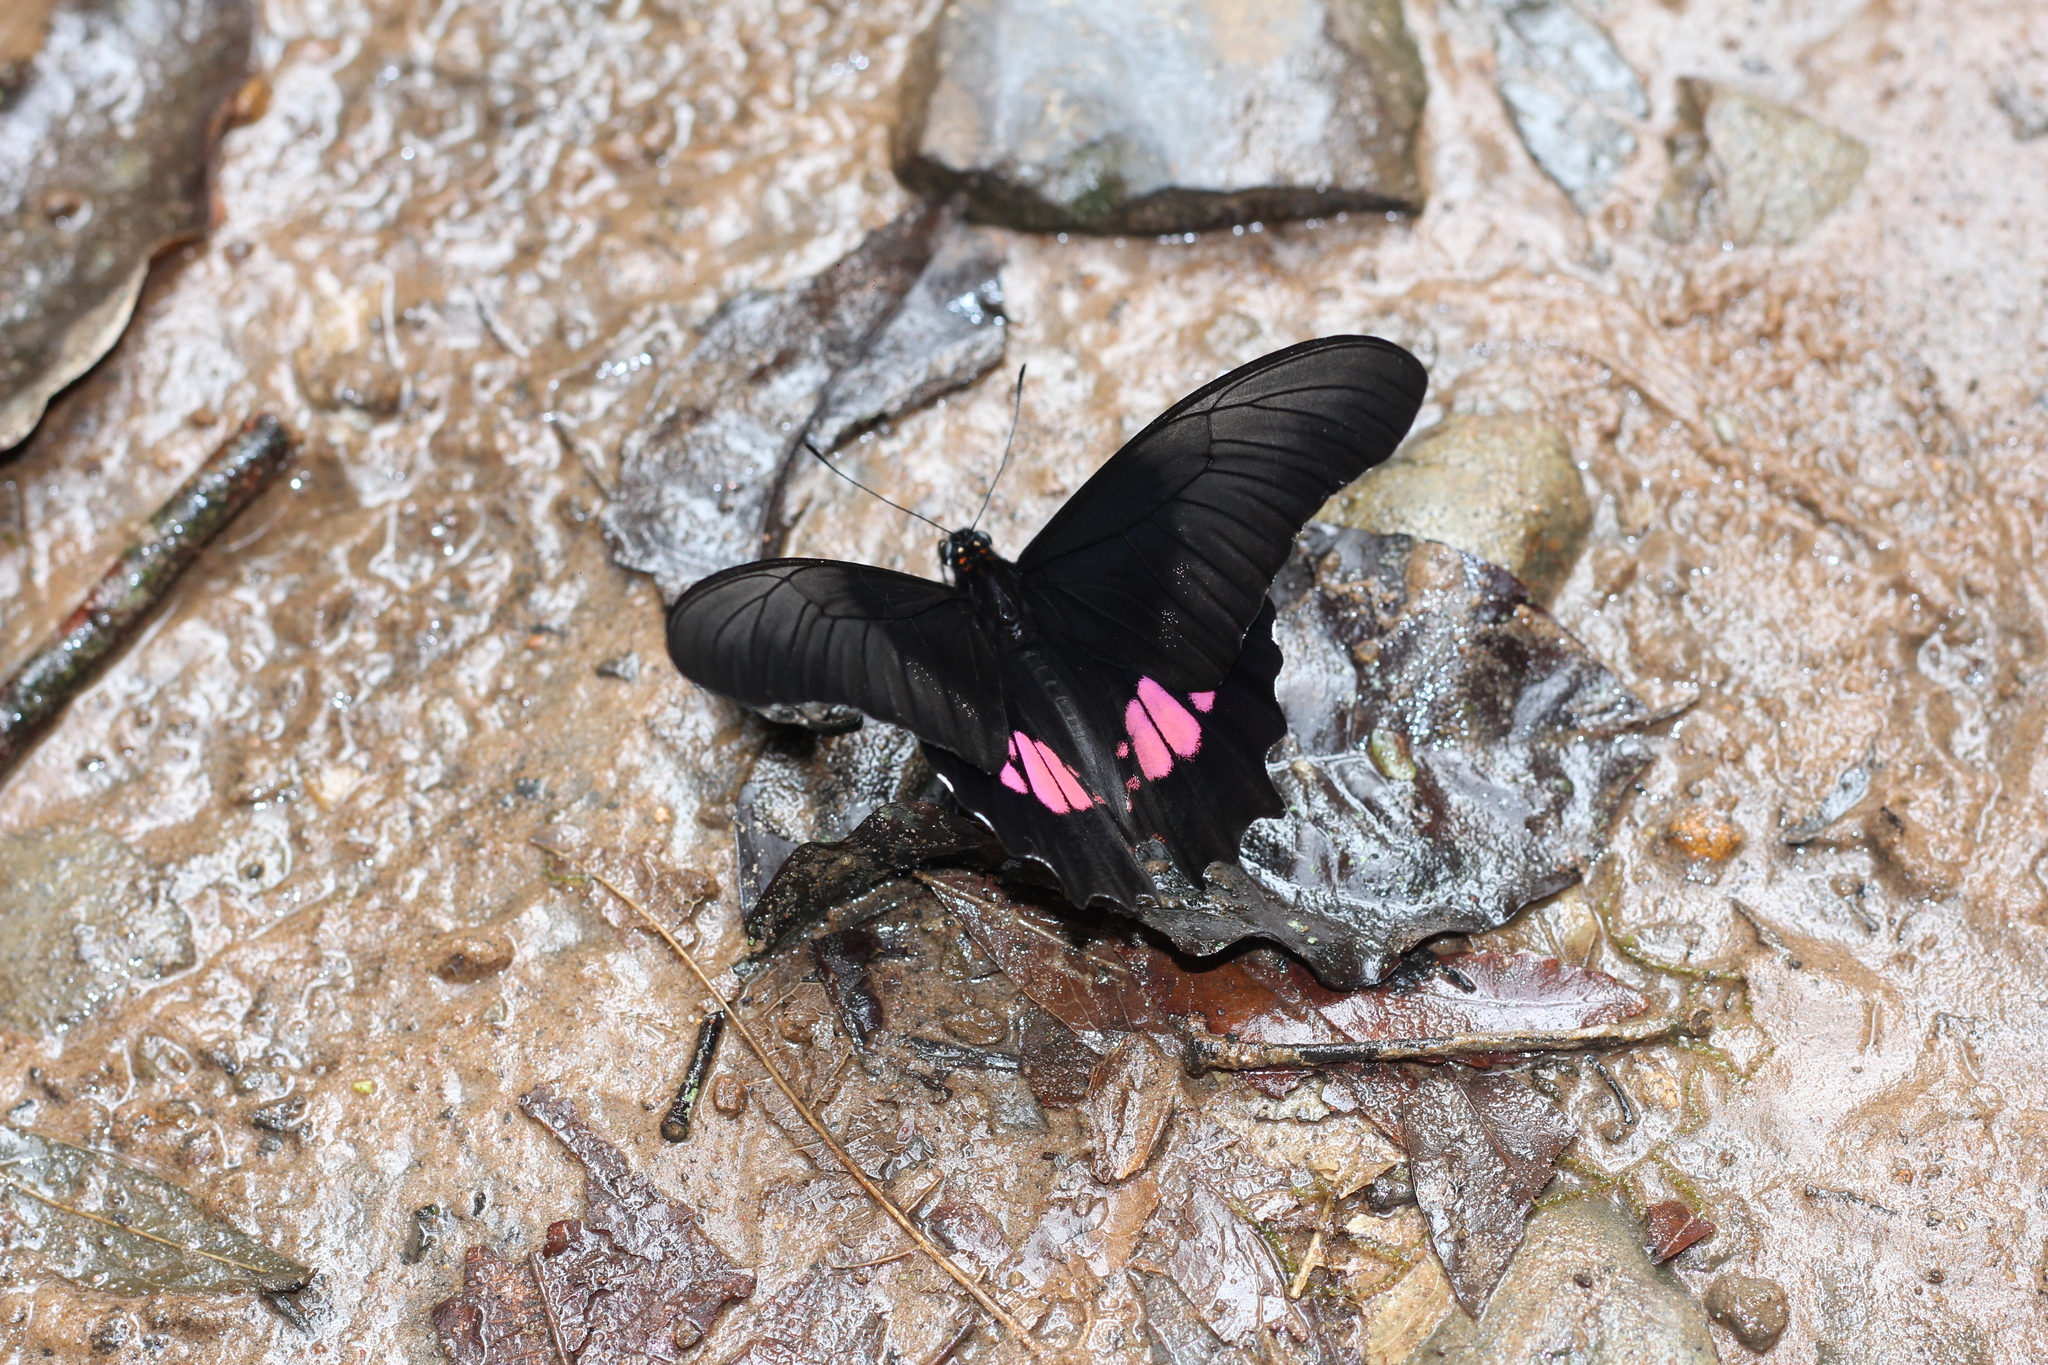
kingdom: Animalia
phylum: Arthropoda
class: Insecta
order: Lepidoptera
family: Papilionidae
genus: Papilio
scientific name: Papilio anchisiades
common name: Idaes swallowtail
